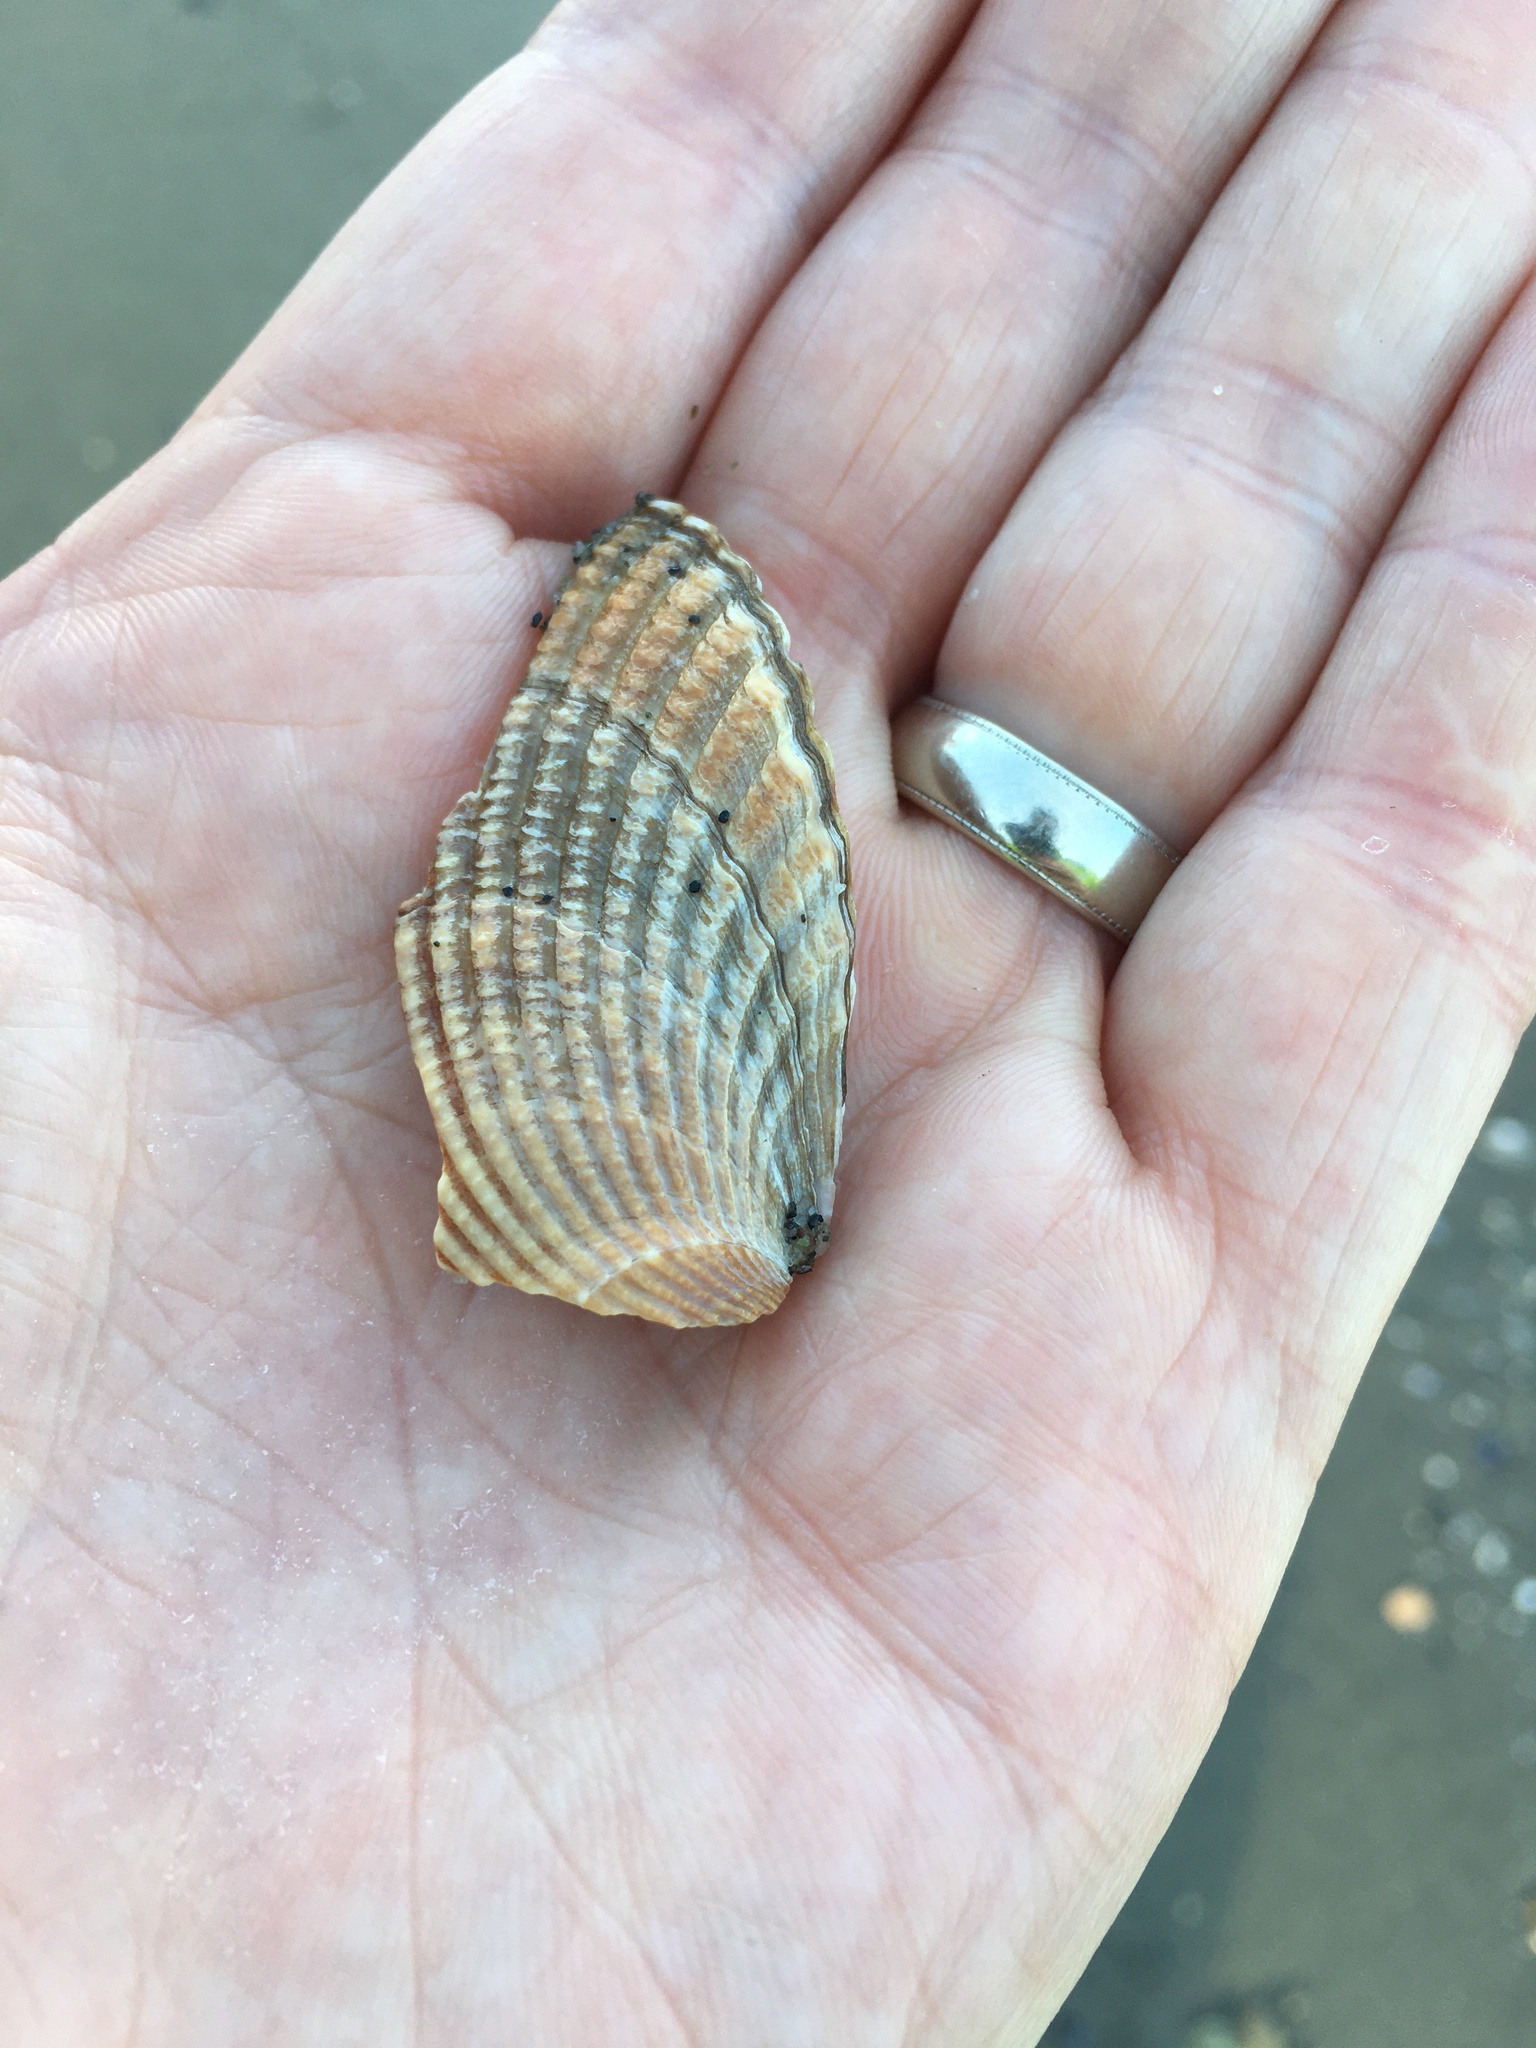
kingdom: Animalia
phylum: Mollusca
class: Bivalvia
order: Cardiida
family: Cardiidae
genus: Clinocardium
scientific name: Clinocardium nuttallii
